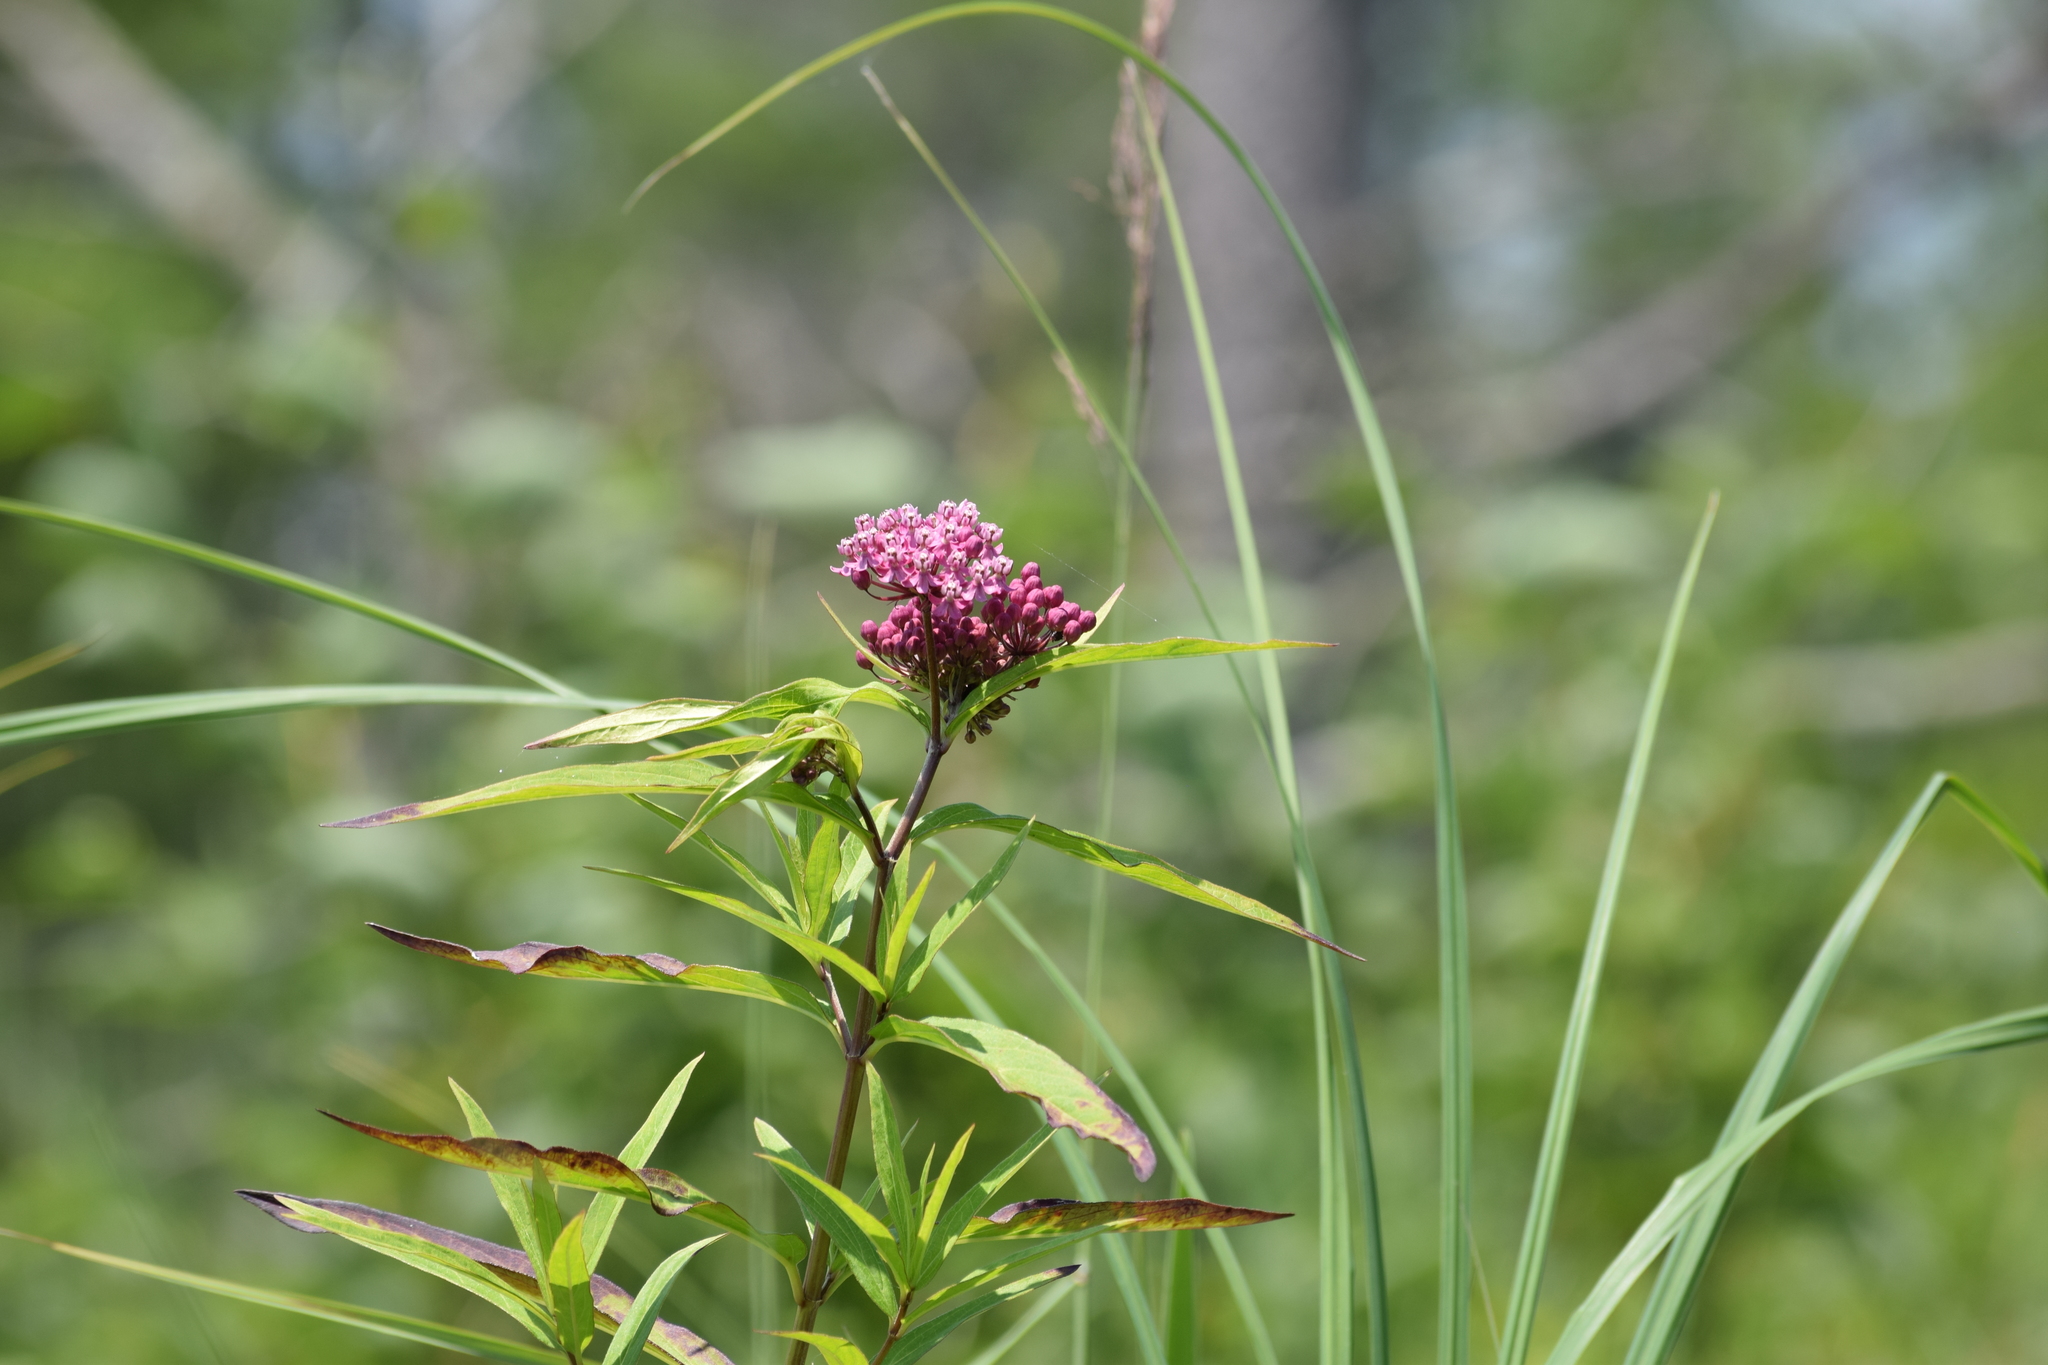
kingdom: Plantae
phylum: Tracheophyta
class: Magnoliopsida
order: Gentianales
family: Apocynaceae
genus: Asclepias
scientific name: Asclepias incarnata
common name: Swamp milkweed
